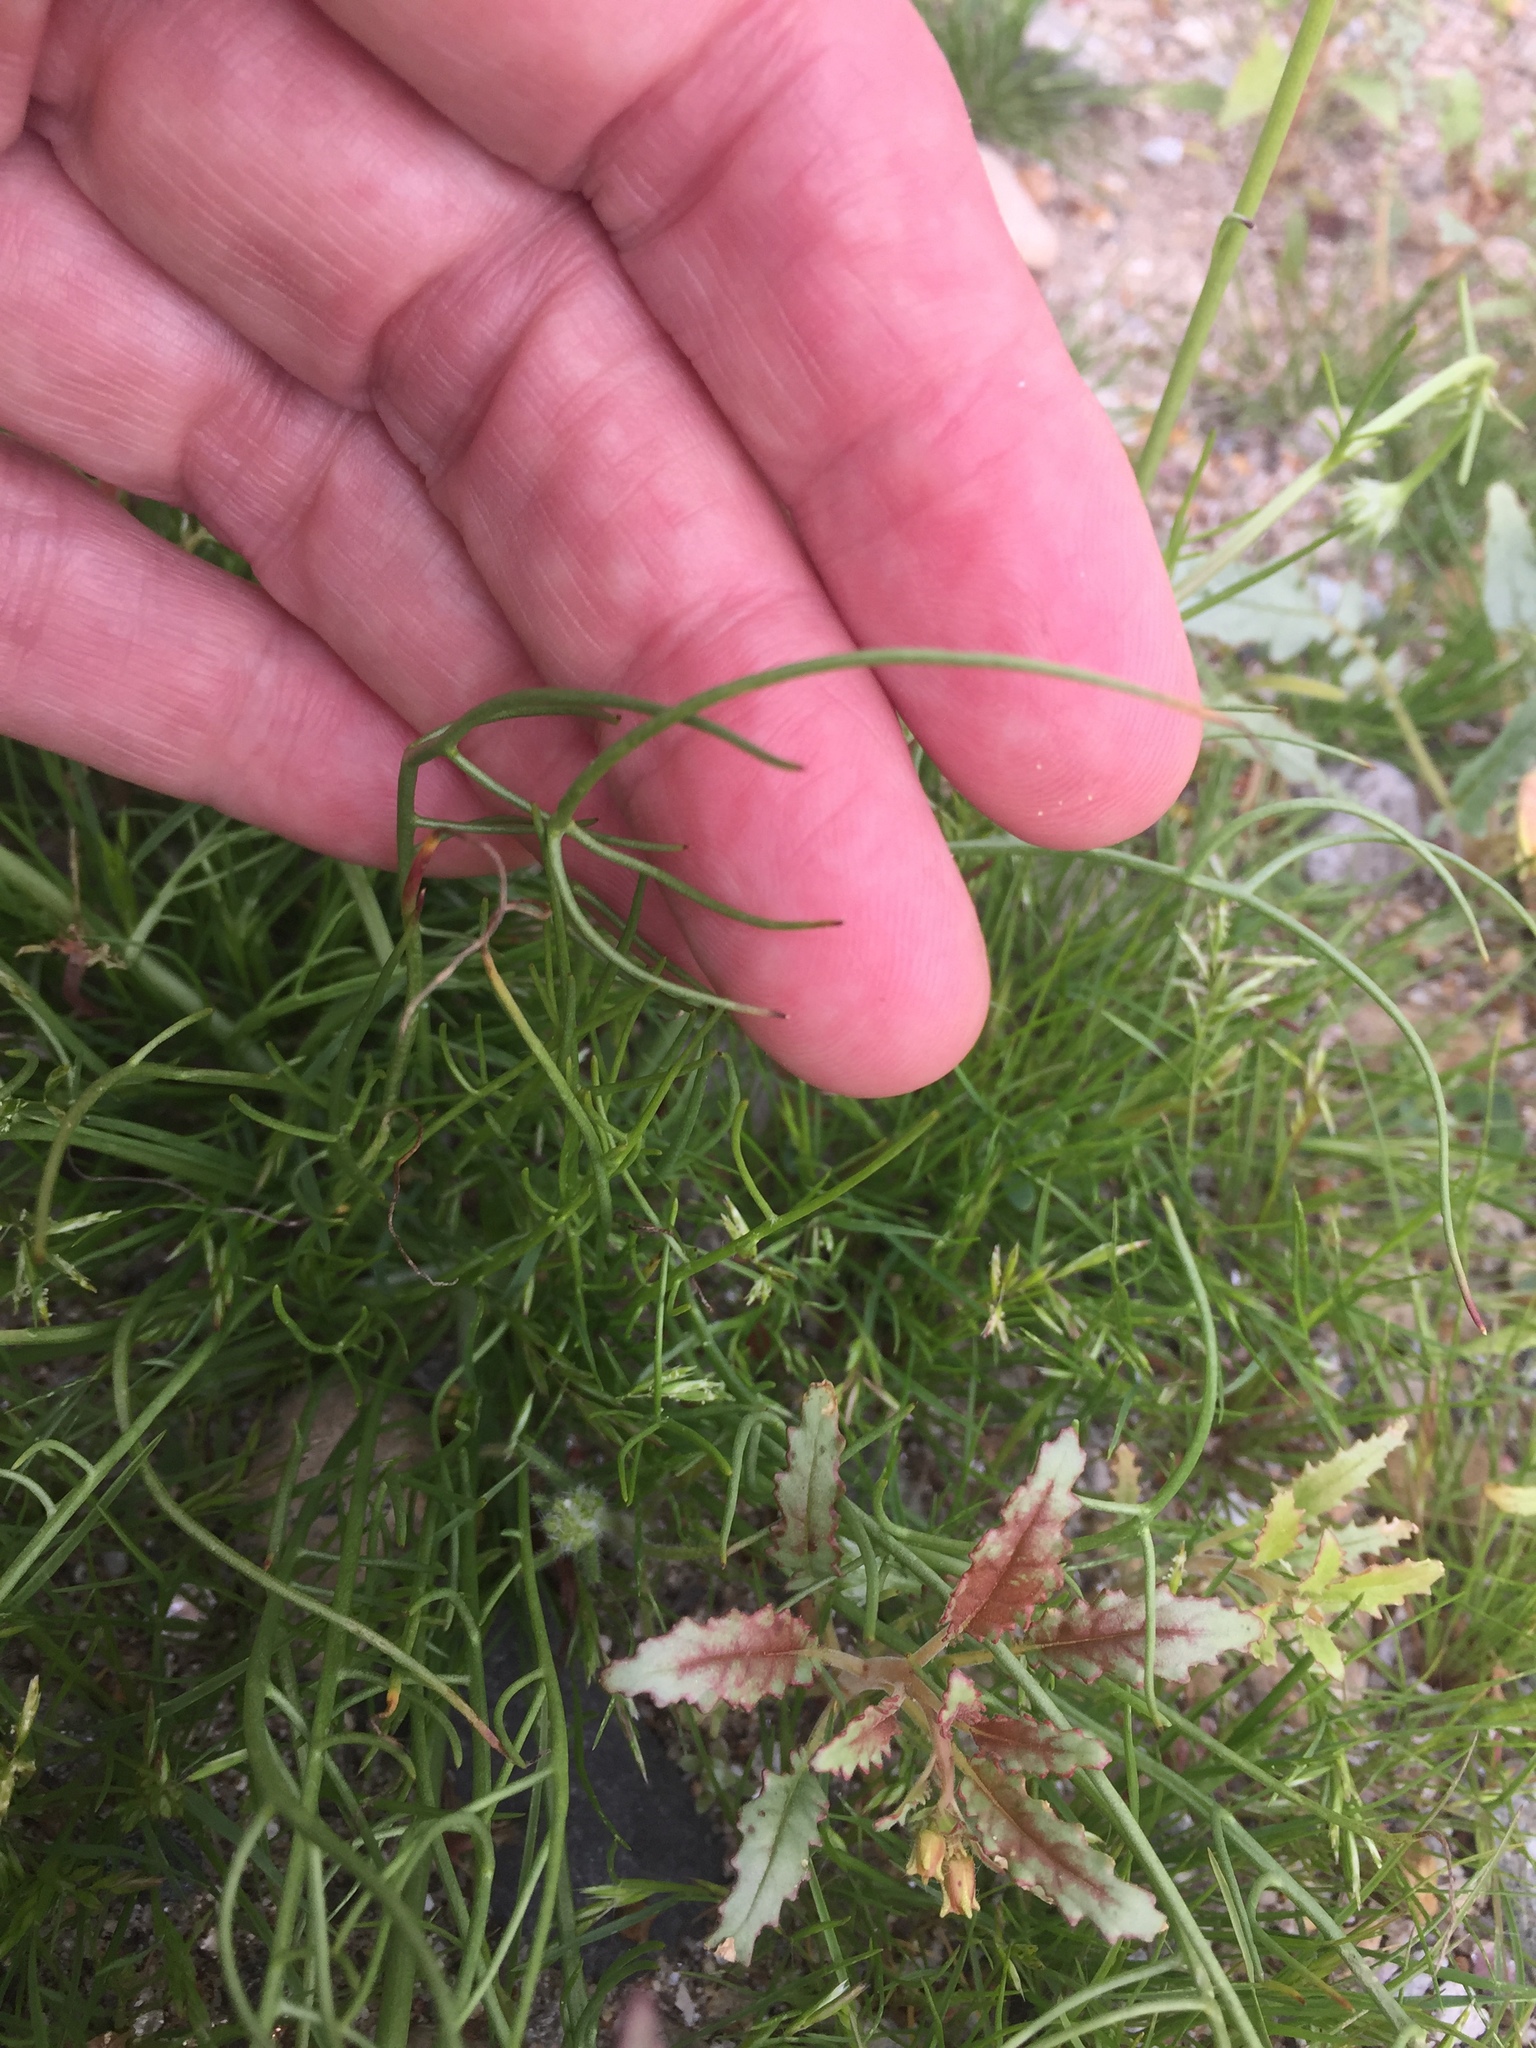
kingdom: Plantae
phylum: Tracheophyta
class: Magnoliopsida
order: Asterales
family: Asteraceae
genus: Malacothrix
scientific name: Malacothrix glabrata
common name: Smooth desert-dandelion
